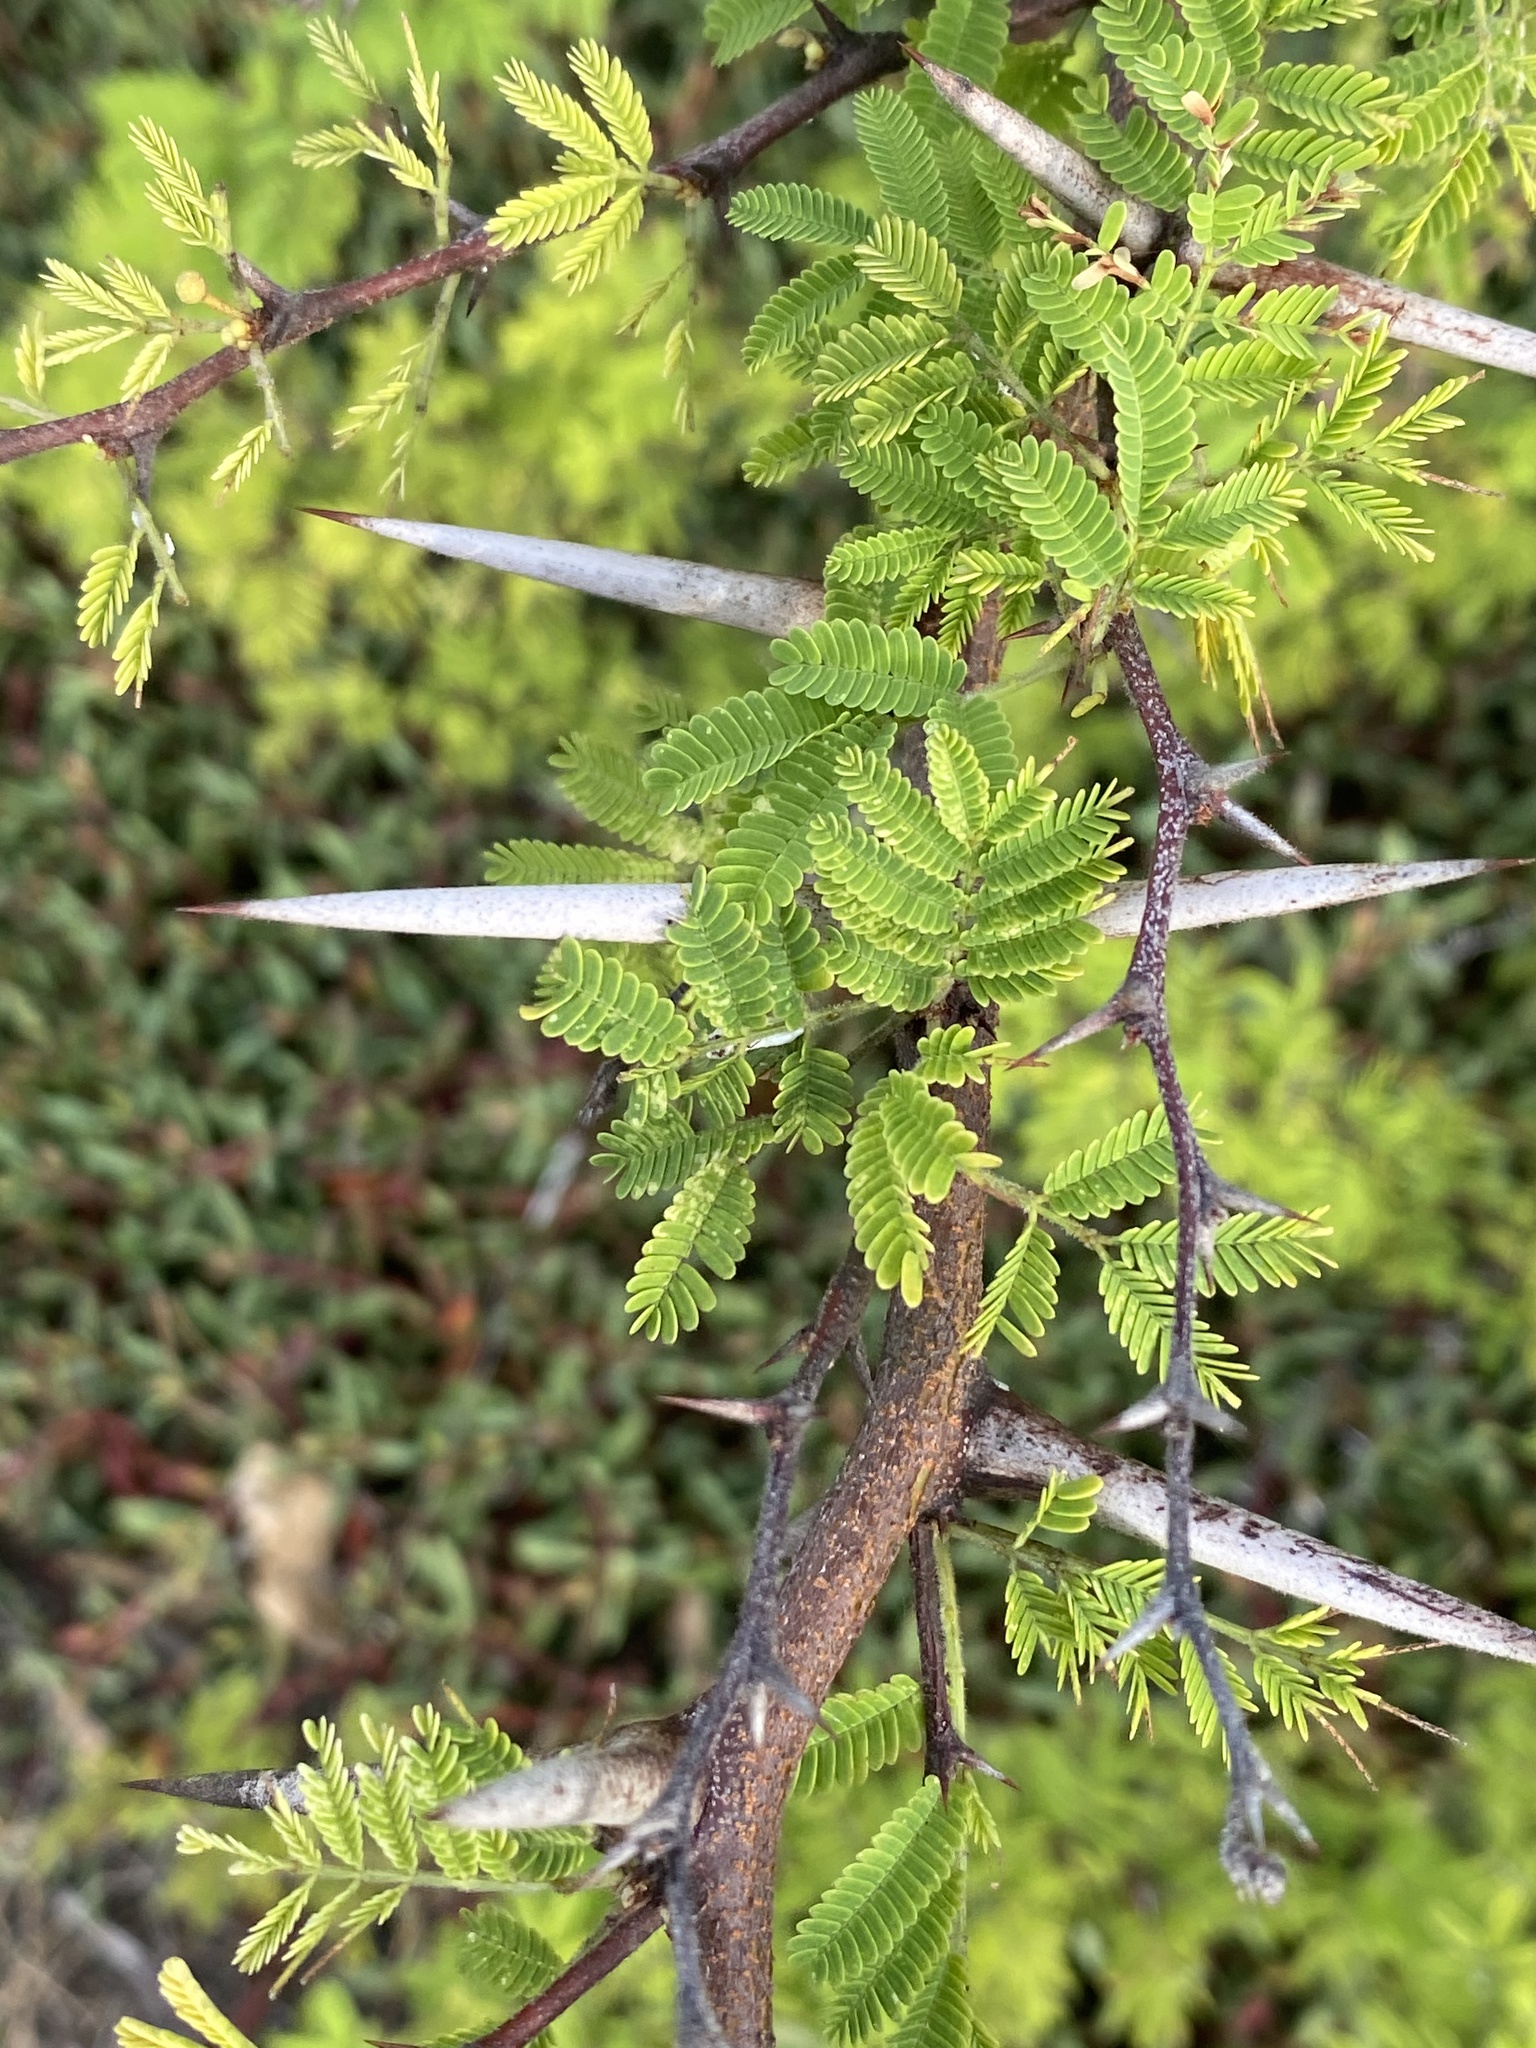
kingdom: Plantae
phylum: Tracheophyta
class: Magnoliopsida
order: Fabales
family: Fabaceae
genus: Vachellia
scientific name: Vachellia tortuosa
